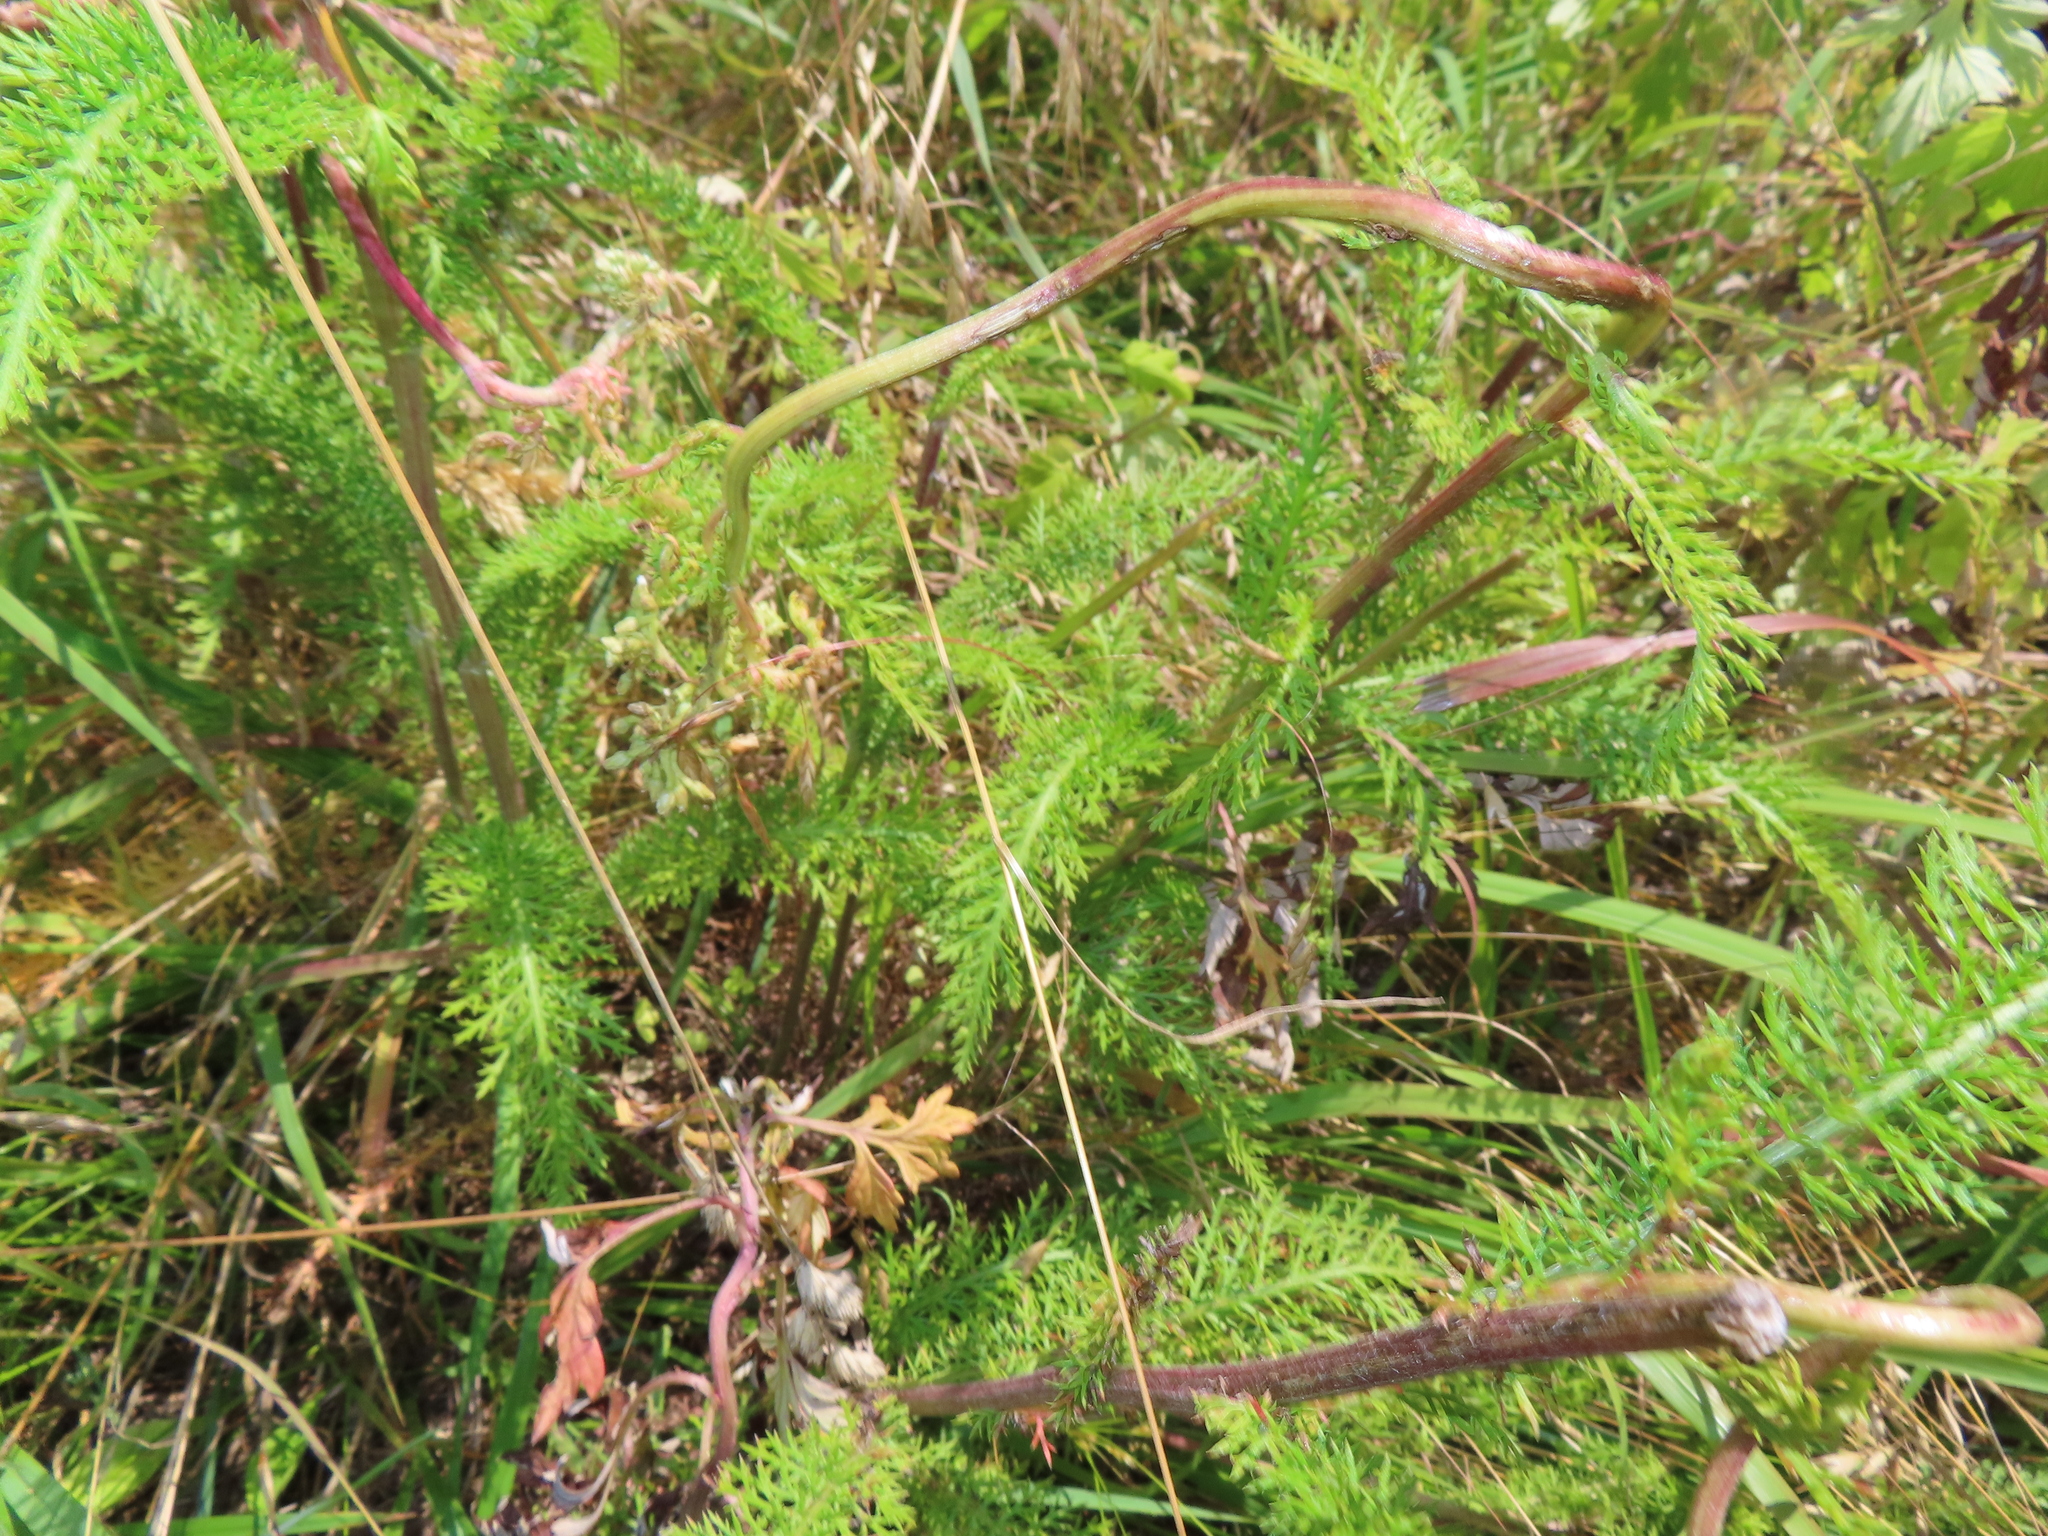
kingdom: Plantae
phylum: Tracheophyta
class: Magnoliopsida
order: Asterales
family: Asteraceae
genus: Achillea
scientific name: Achillea millefolium
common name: Yarrow
